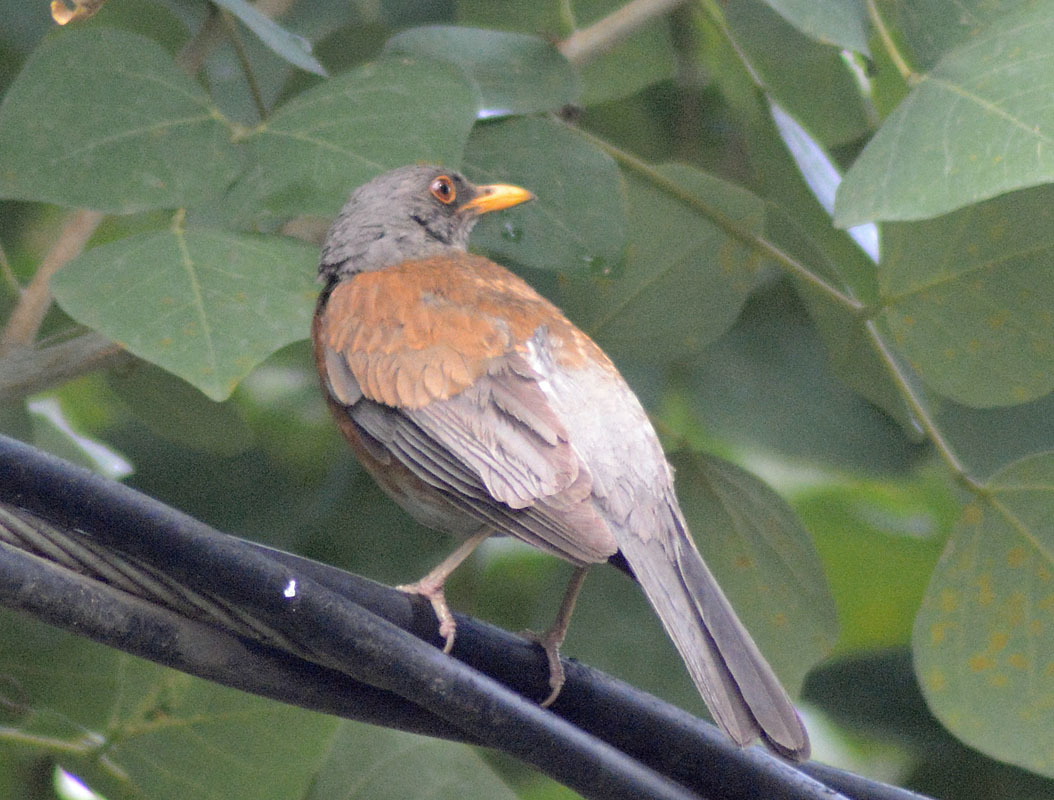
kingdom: Animalia
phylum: Chordata
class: Aves
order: Passeriformes
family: Turdidae
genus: Turdus
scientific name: Turdus rufopalliatus
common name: Rufous-backed robin
